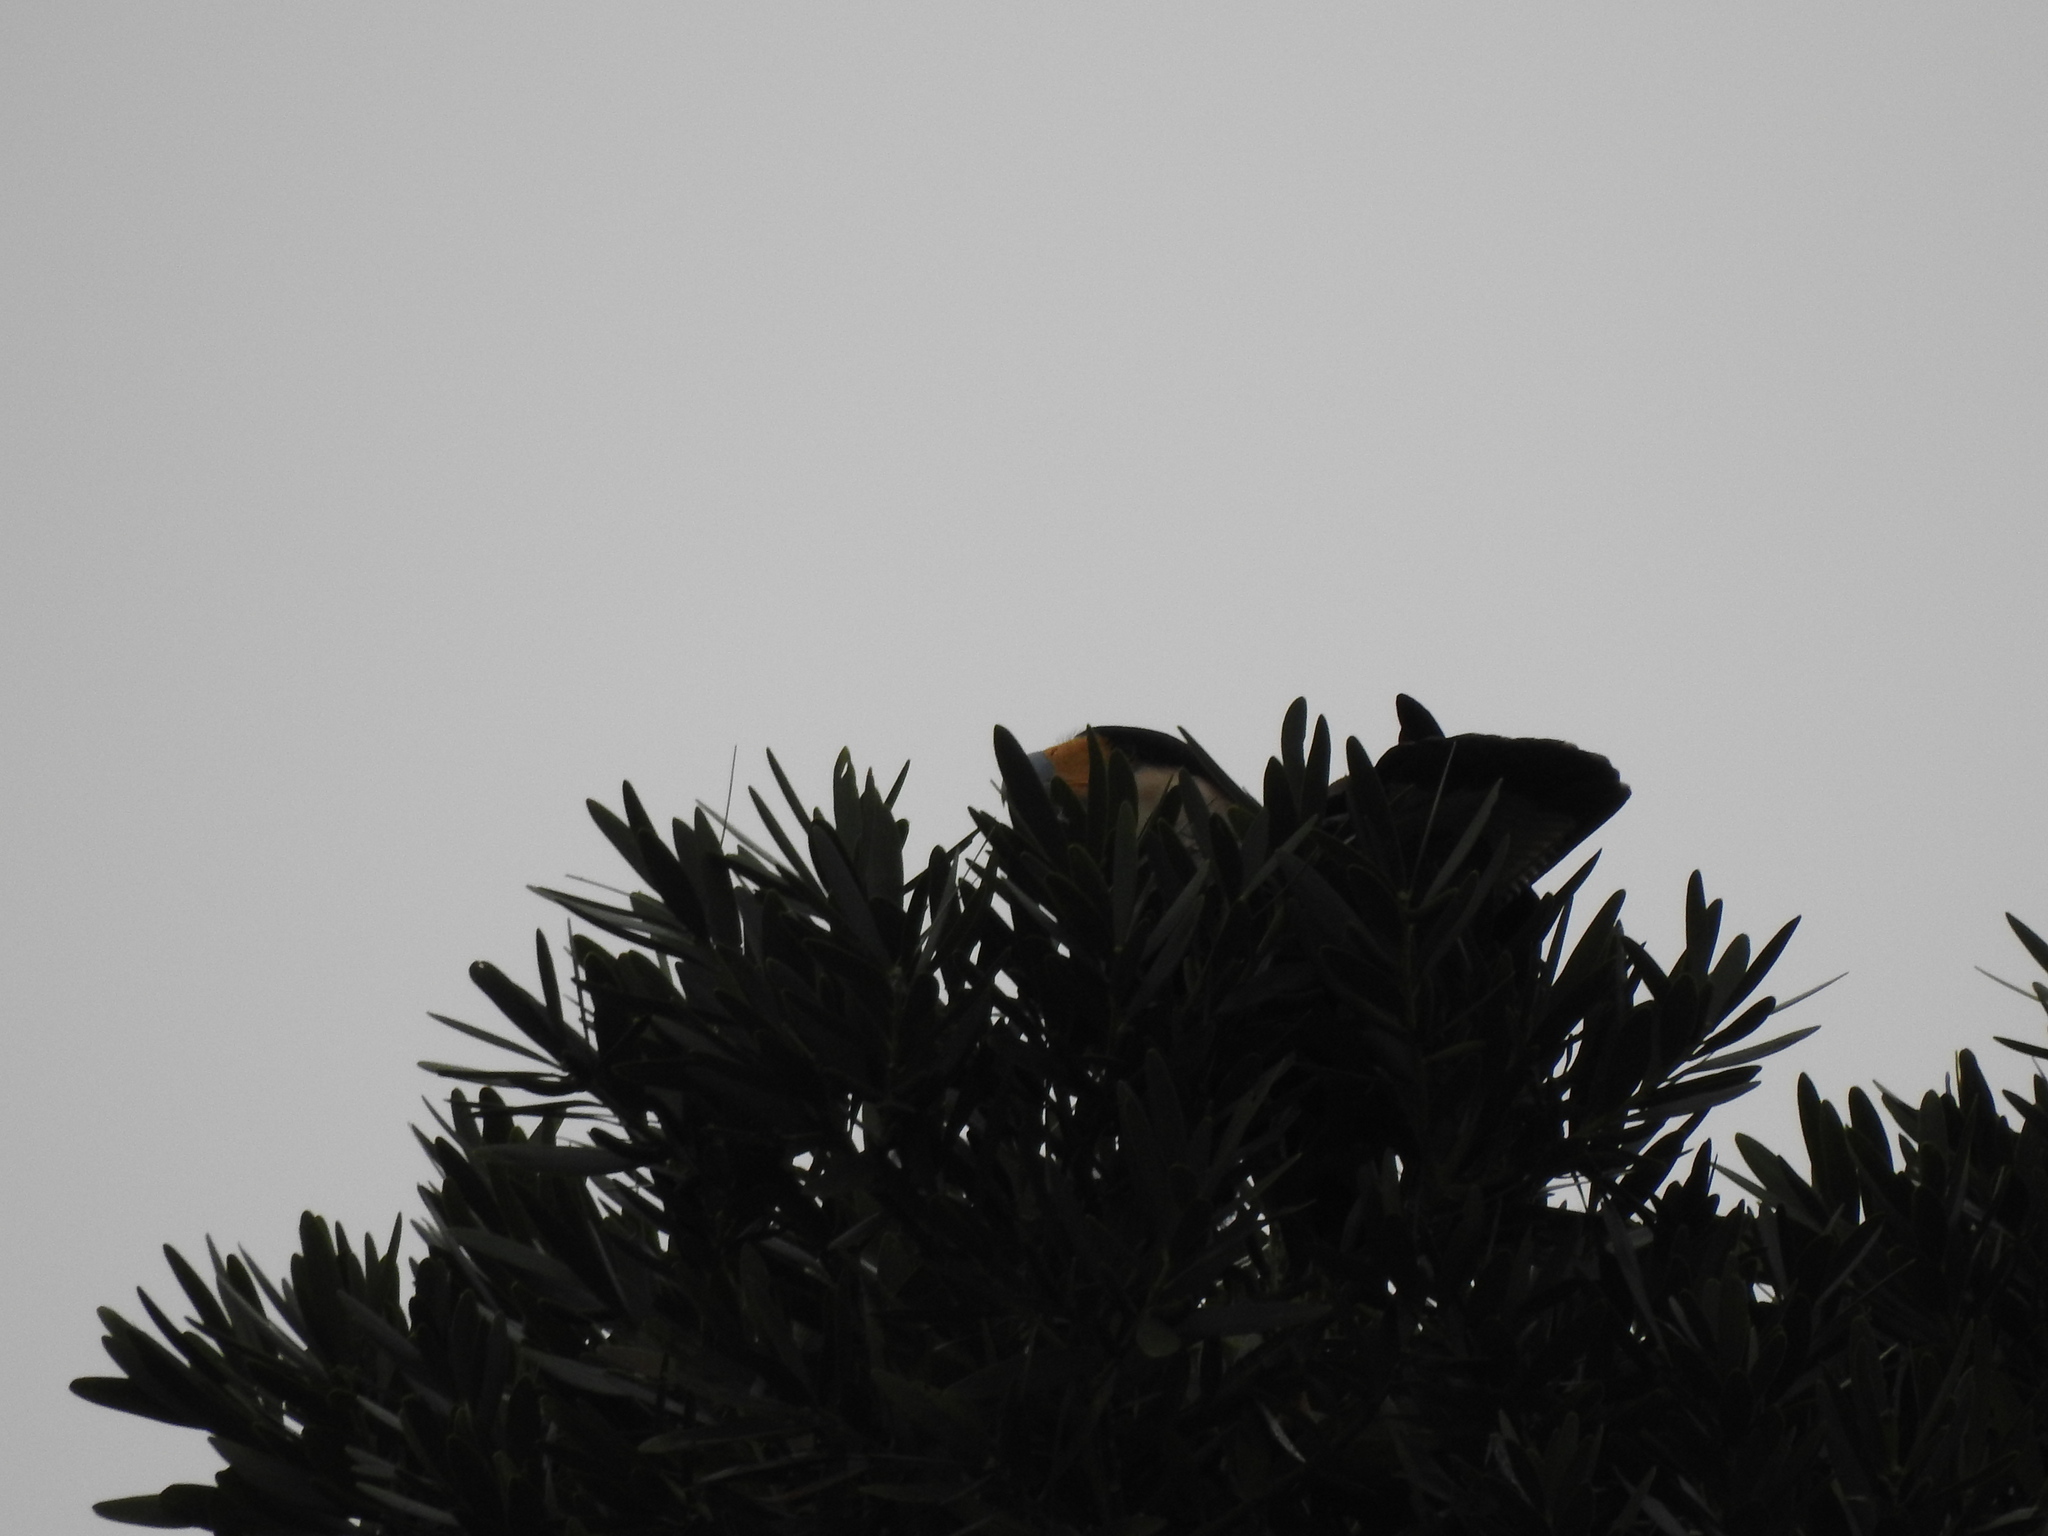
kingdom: Animalia
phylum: Chordata
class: Aves
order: Falconiformes
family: Falconidae
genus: Caracara
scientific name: Caracara plancus
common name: Southern caracara
